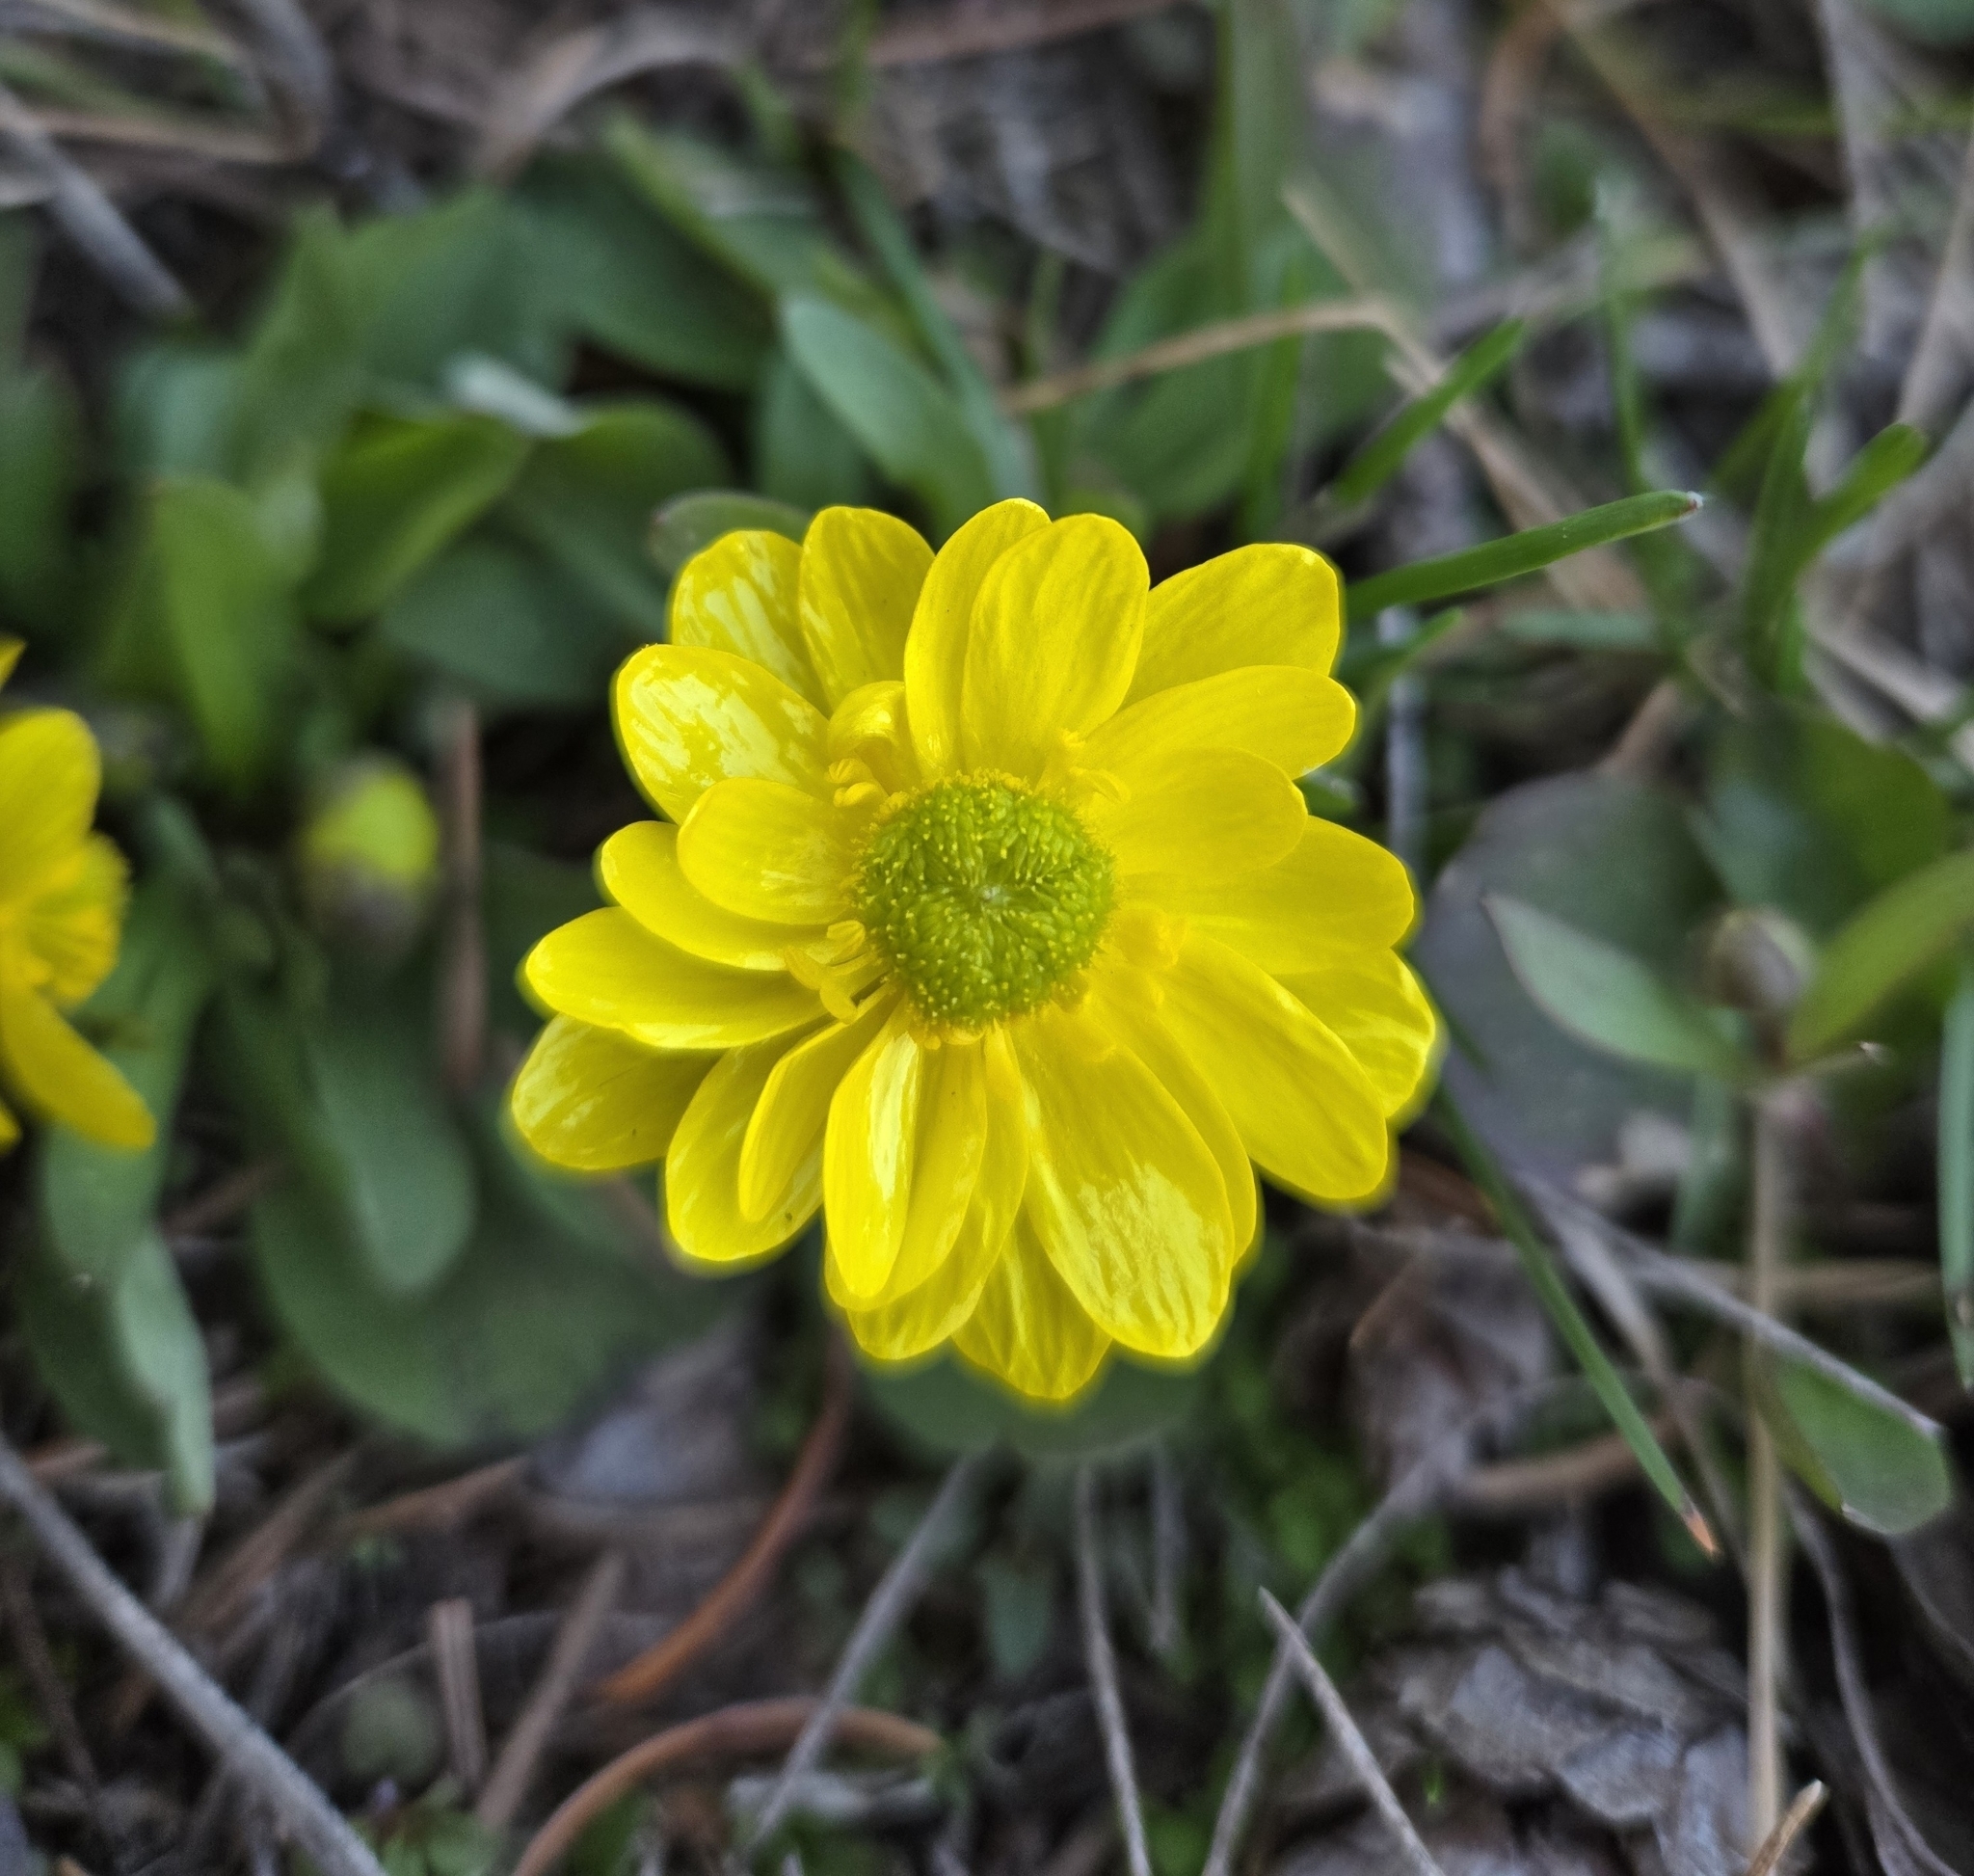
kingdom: Plantae
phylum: Tracheophyta
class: Magnoliopsida
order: Ranunculales
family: Ranunculaceae
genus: Ranunculus
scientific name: Ranunculus glaberrimus
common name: Sagebrush buttercup
